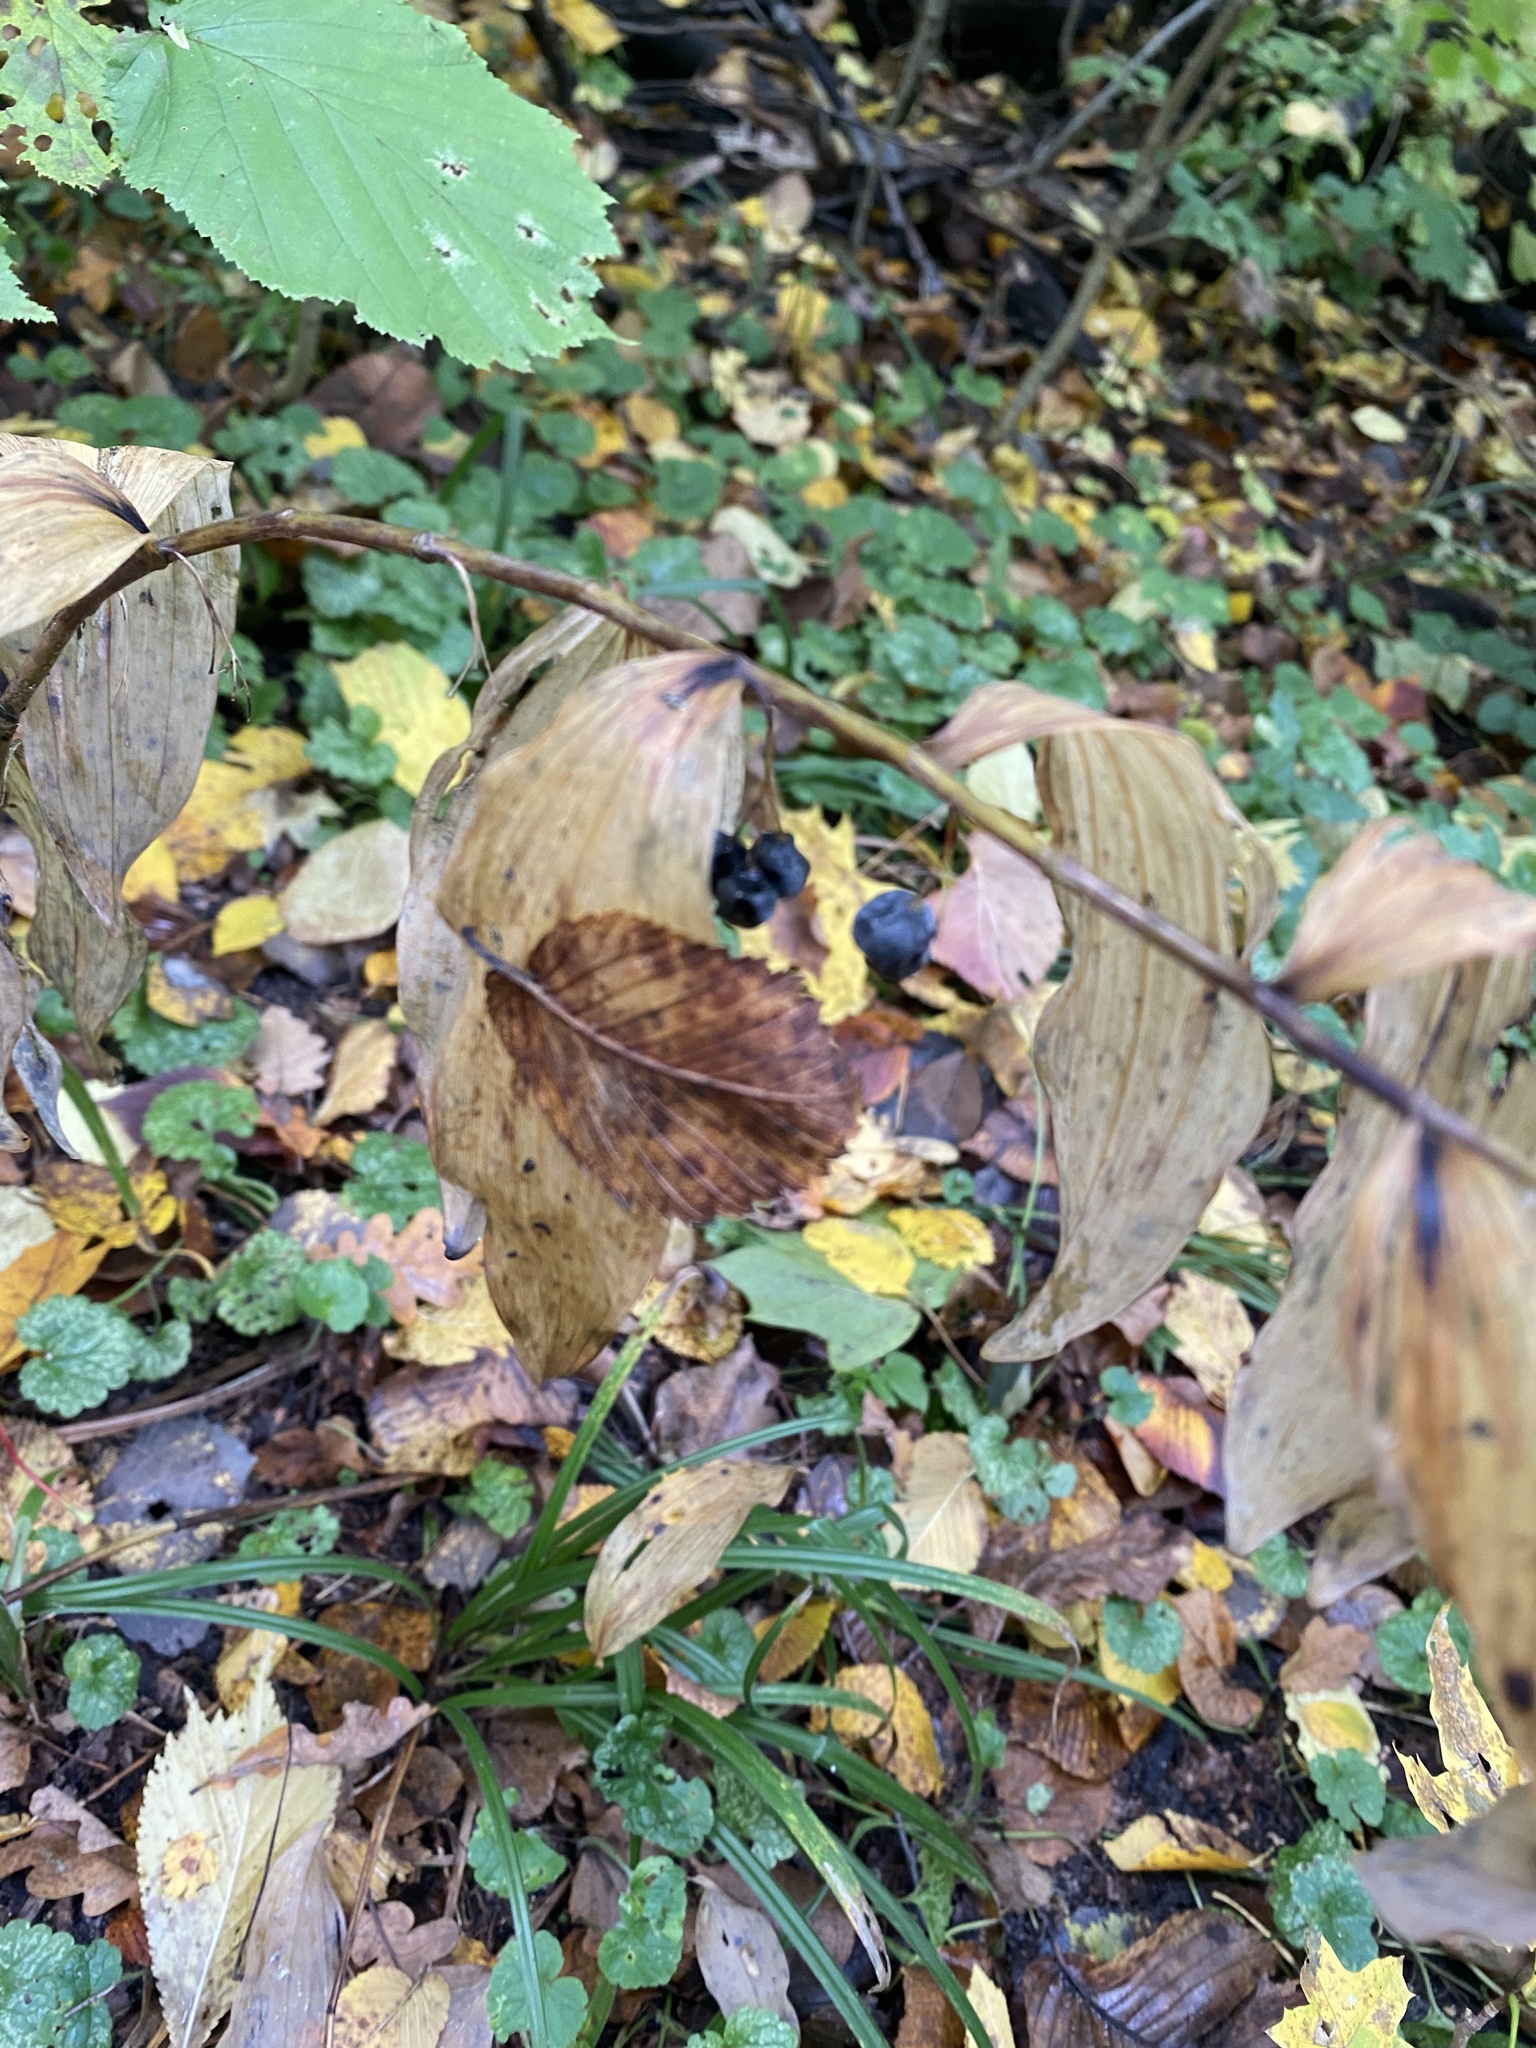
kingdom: Plantae
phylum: Tracheophyta
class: Liliopsida
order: Asparagales
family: Asparagaceae
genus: Polygonatum
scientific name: Polygonatum multiflorum
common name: Solomon's-seal
